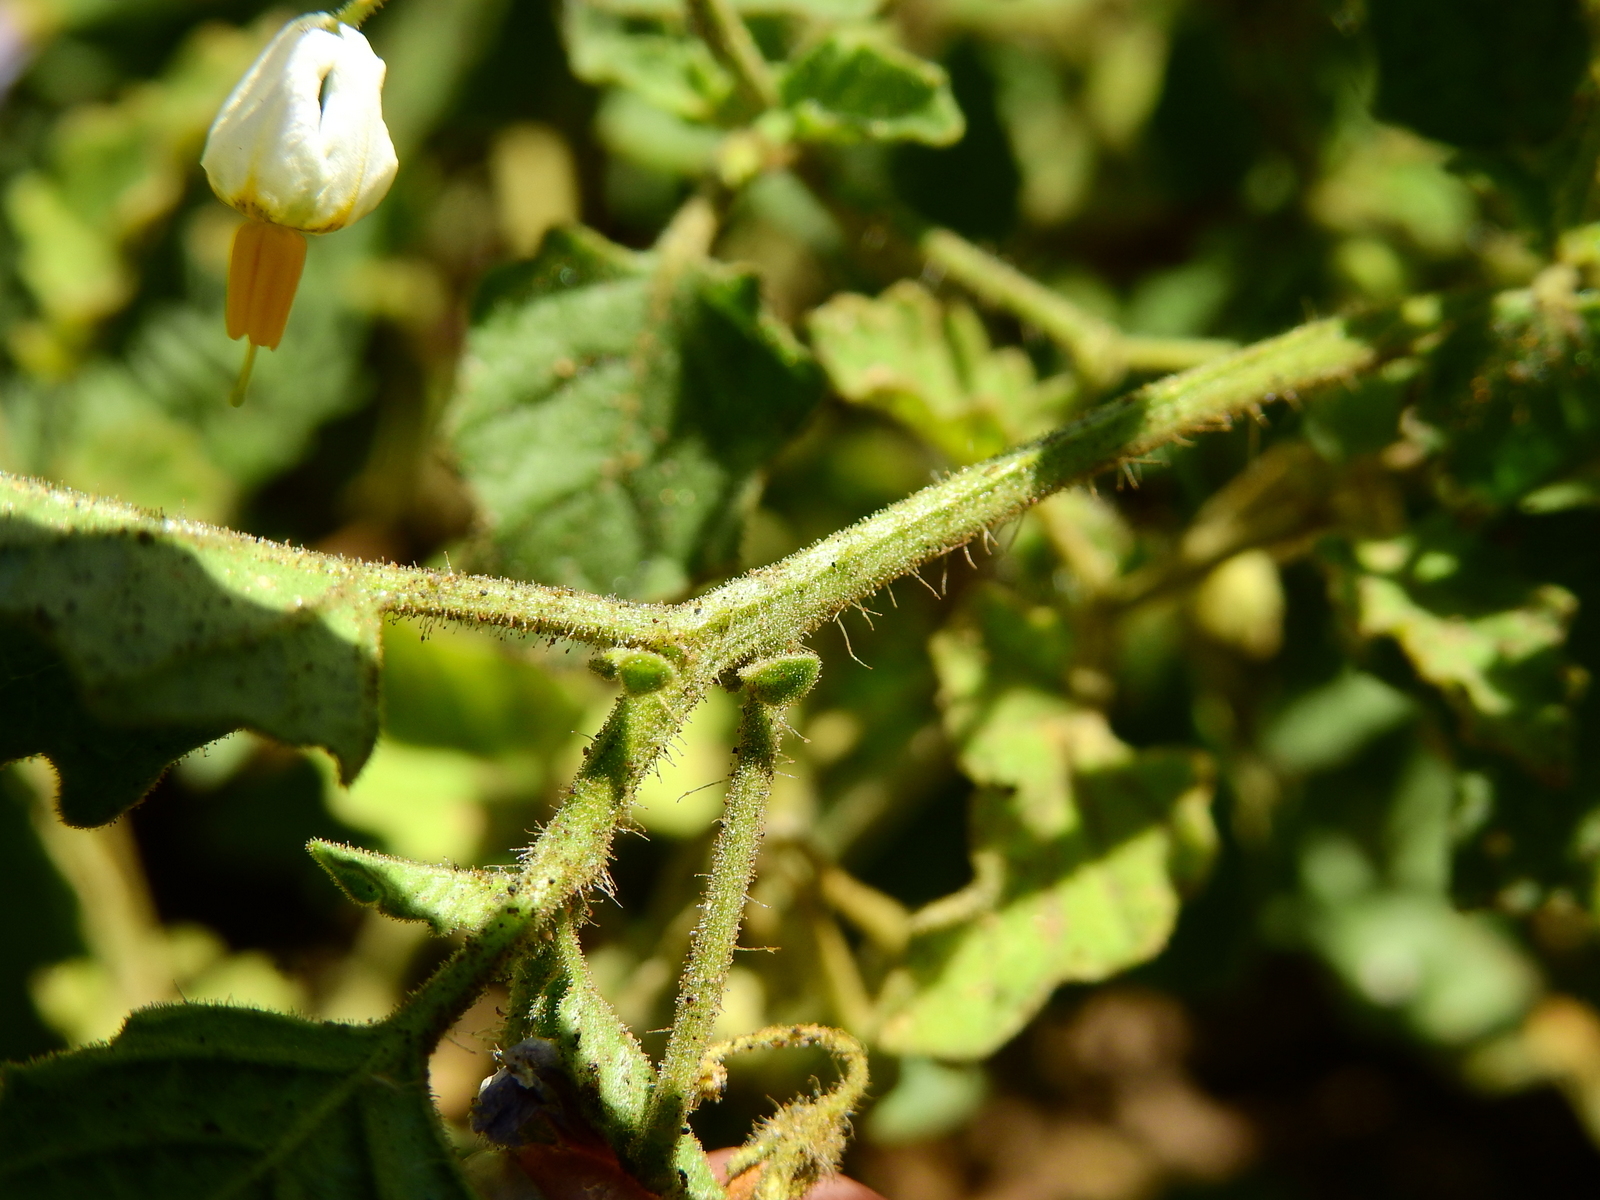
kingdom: Plantae
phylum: Tracheophyta
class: Magnoliopsida
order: Solanales
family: Solanaceae
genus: Solanum
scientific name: Solanum tweedianum
